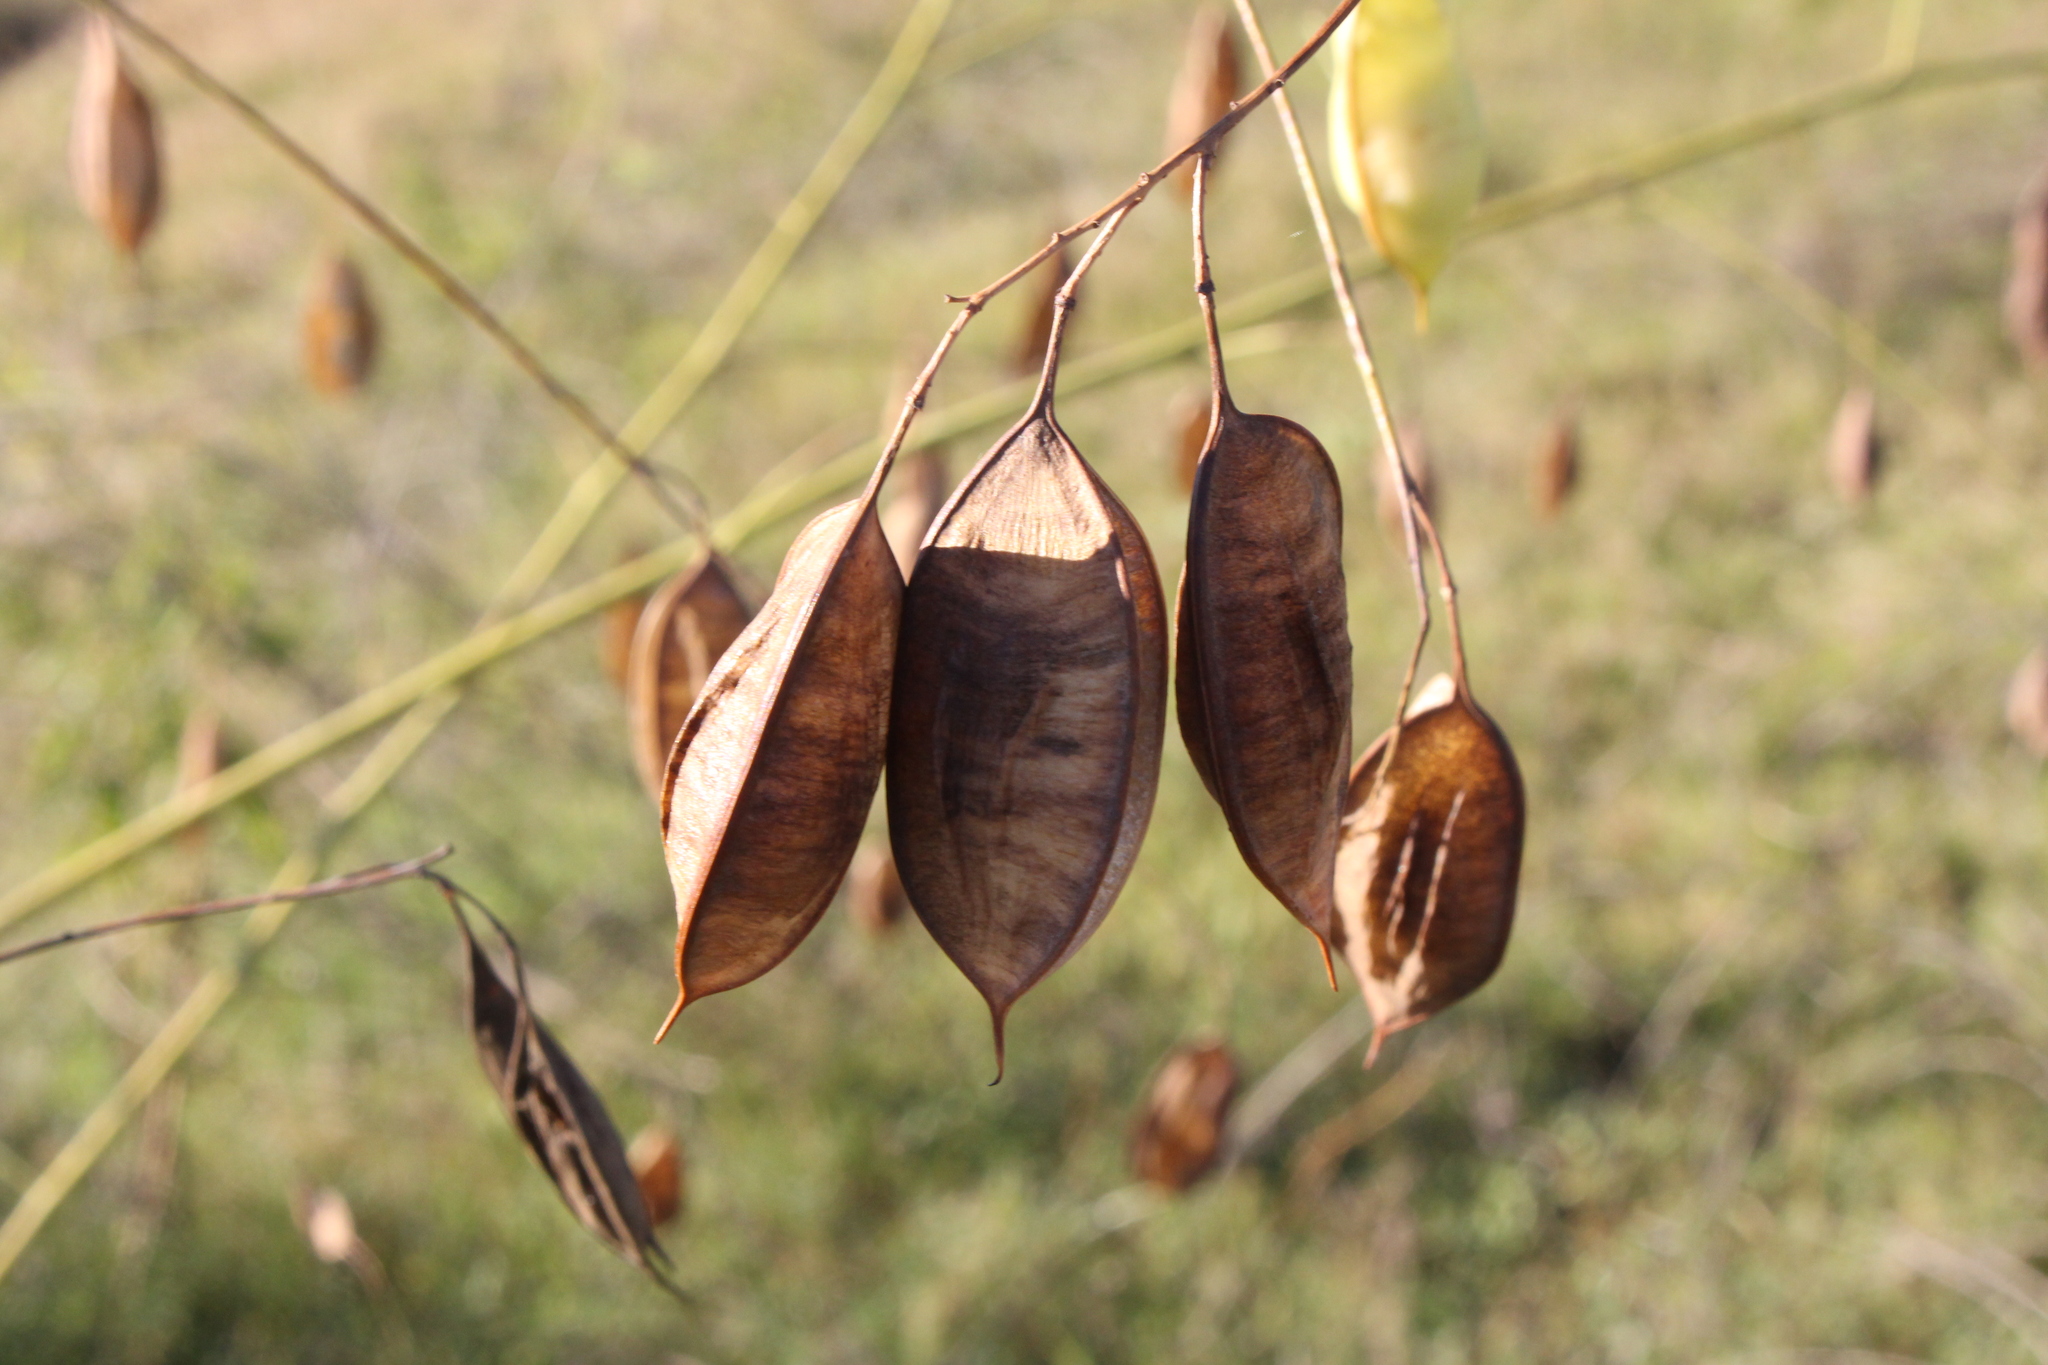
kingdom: Plantae
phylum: Tracheophyta
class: Magnoliopsida
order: Fabales
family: Fabaceae
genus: Sesbania
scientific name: Sesbania vesicaria
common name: Bagpod
